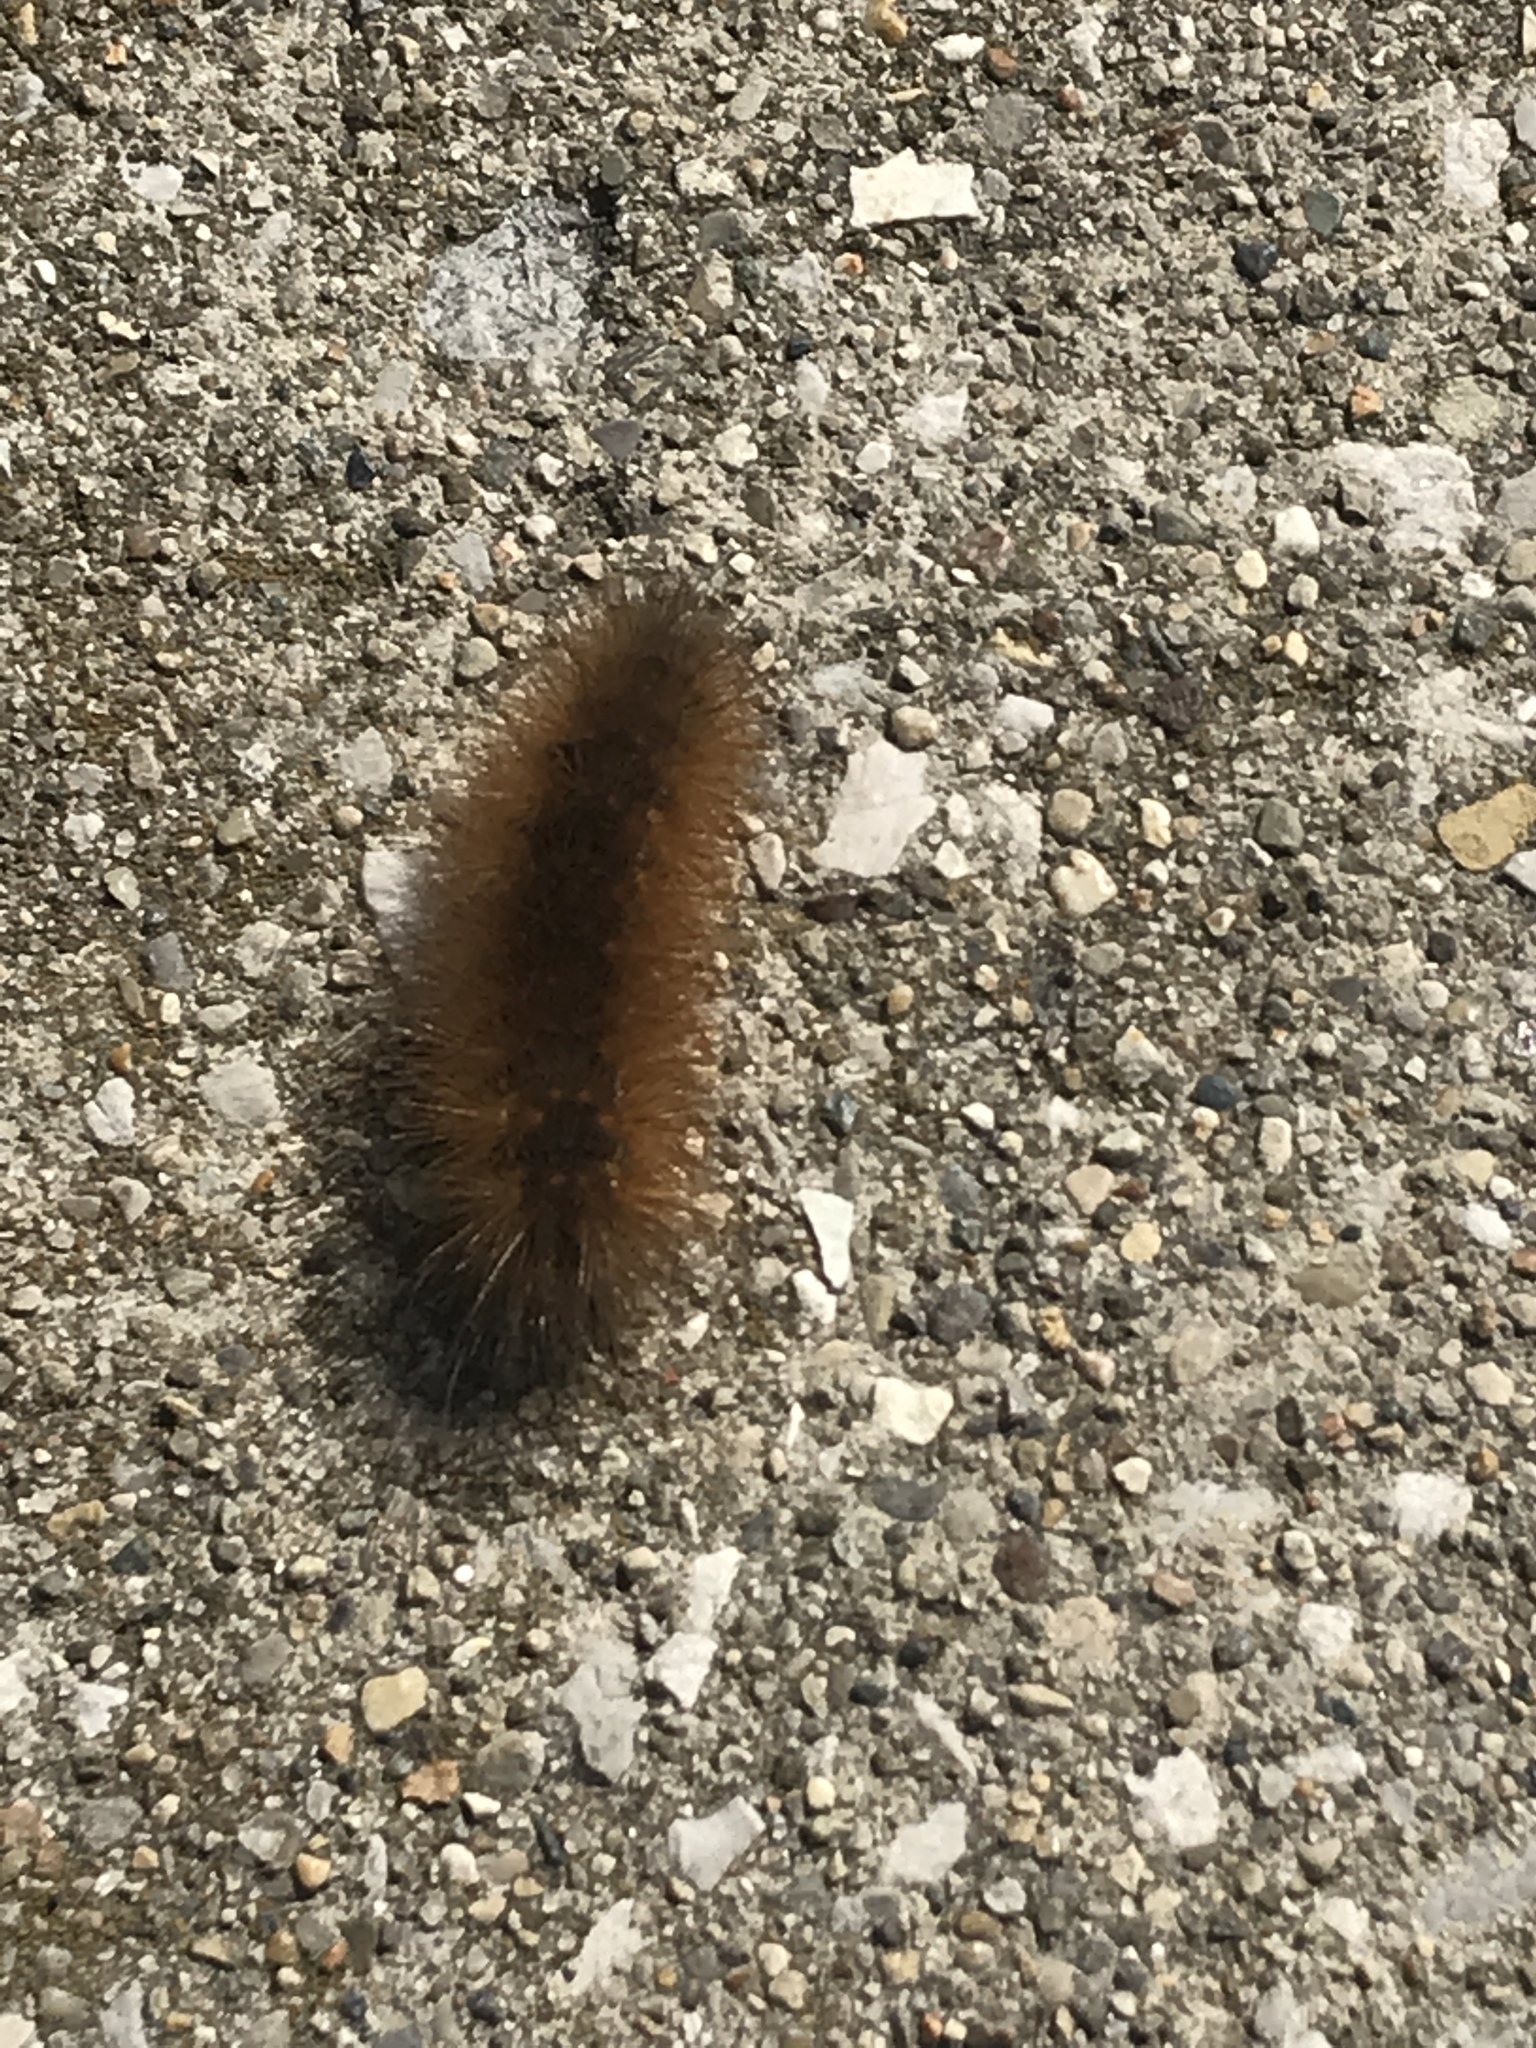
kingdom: Animalia
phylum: Arthropoda
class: Insecta
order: Lepidoptera
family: Erebidae
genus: Estigmene
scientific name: Estigmene acrea
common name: Salt marsh moth
